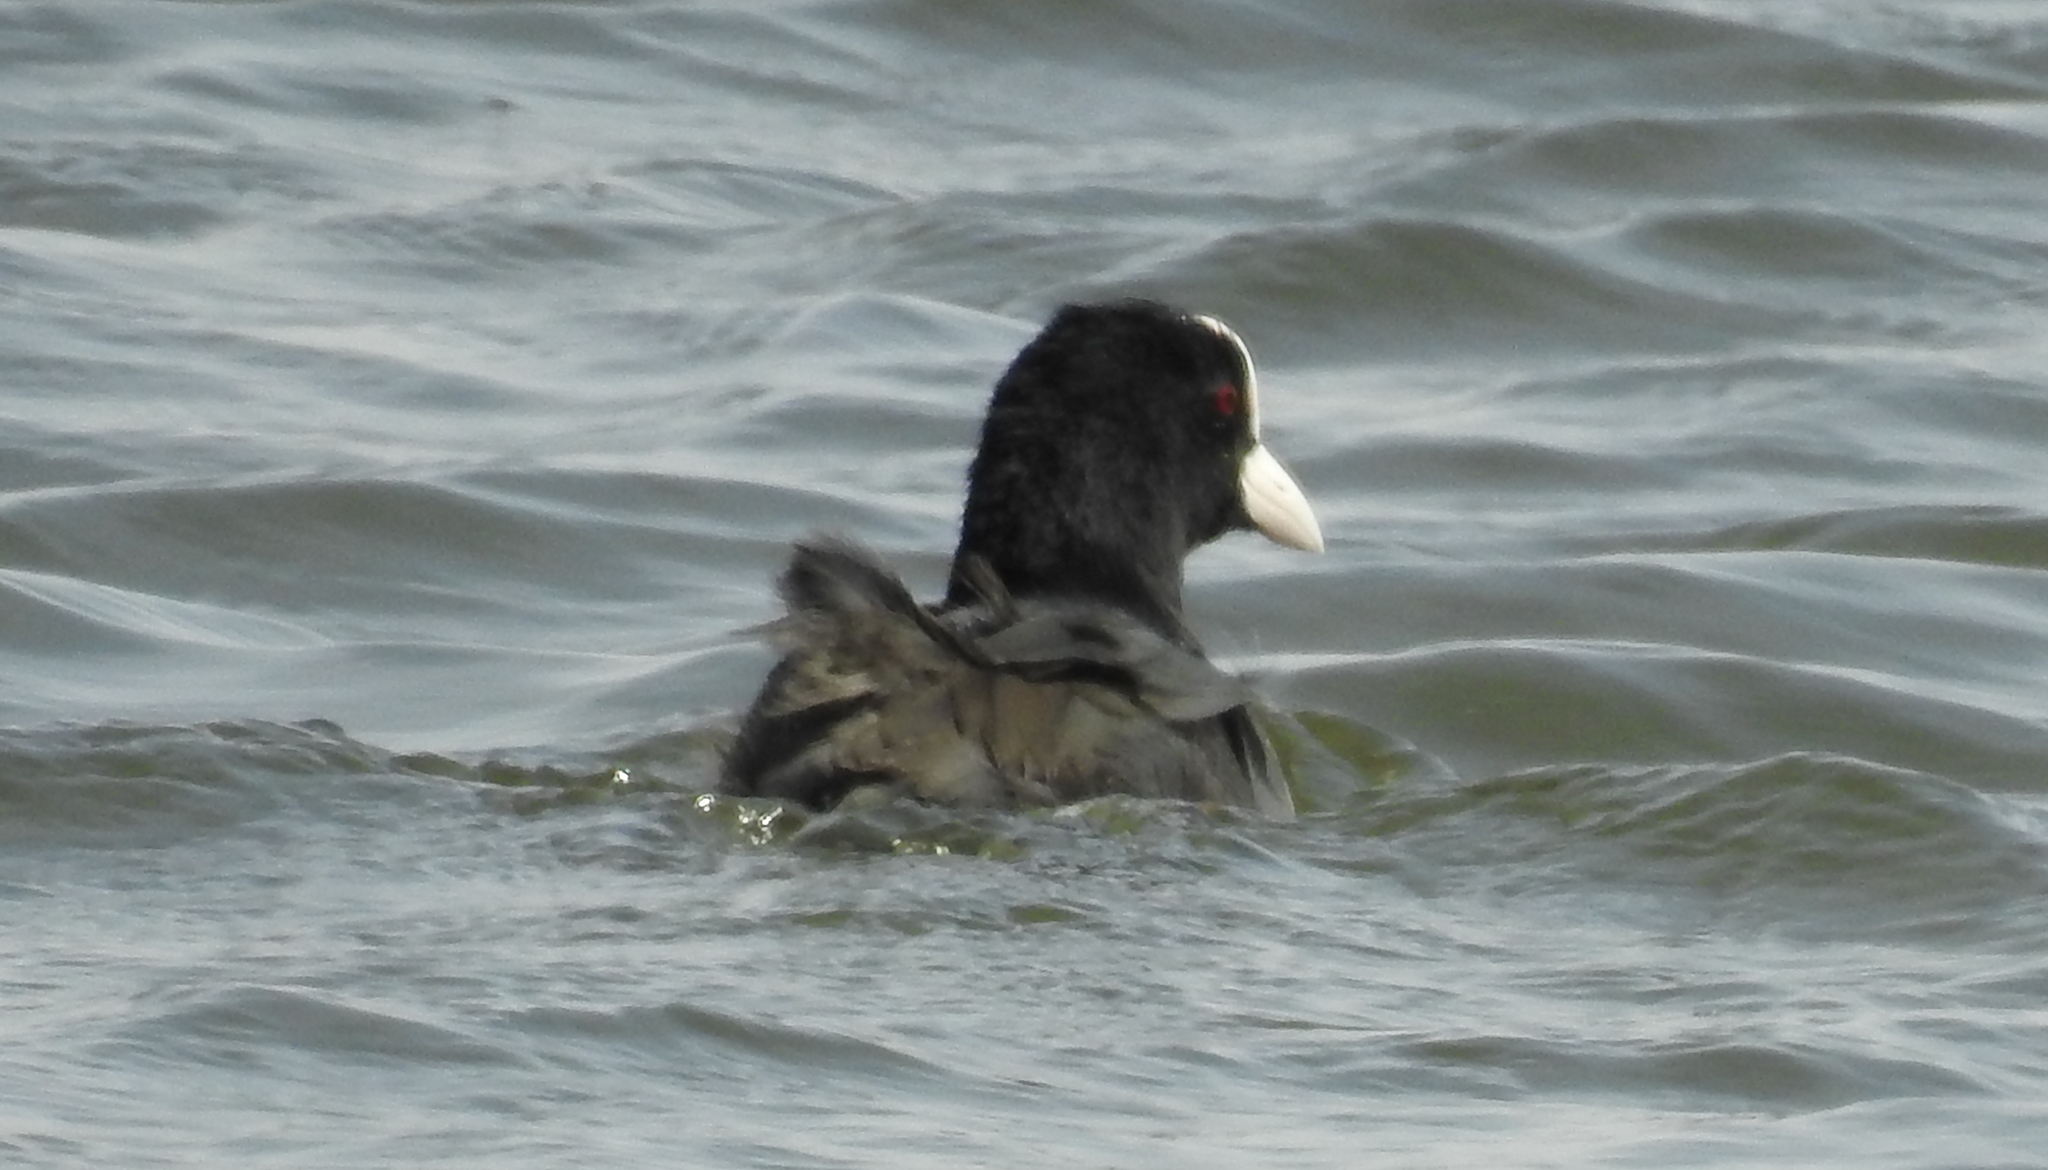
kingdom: Animalia
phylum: Chordata
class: Aves
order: Gruiformes
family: Rallidae
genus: Fulica
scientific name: Fulica atra
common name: Eurasian coot
